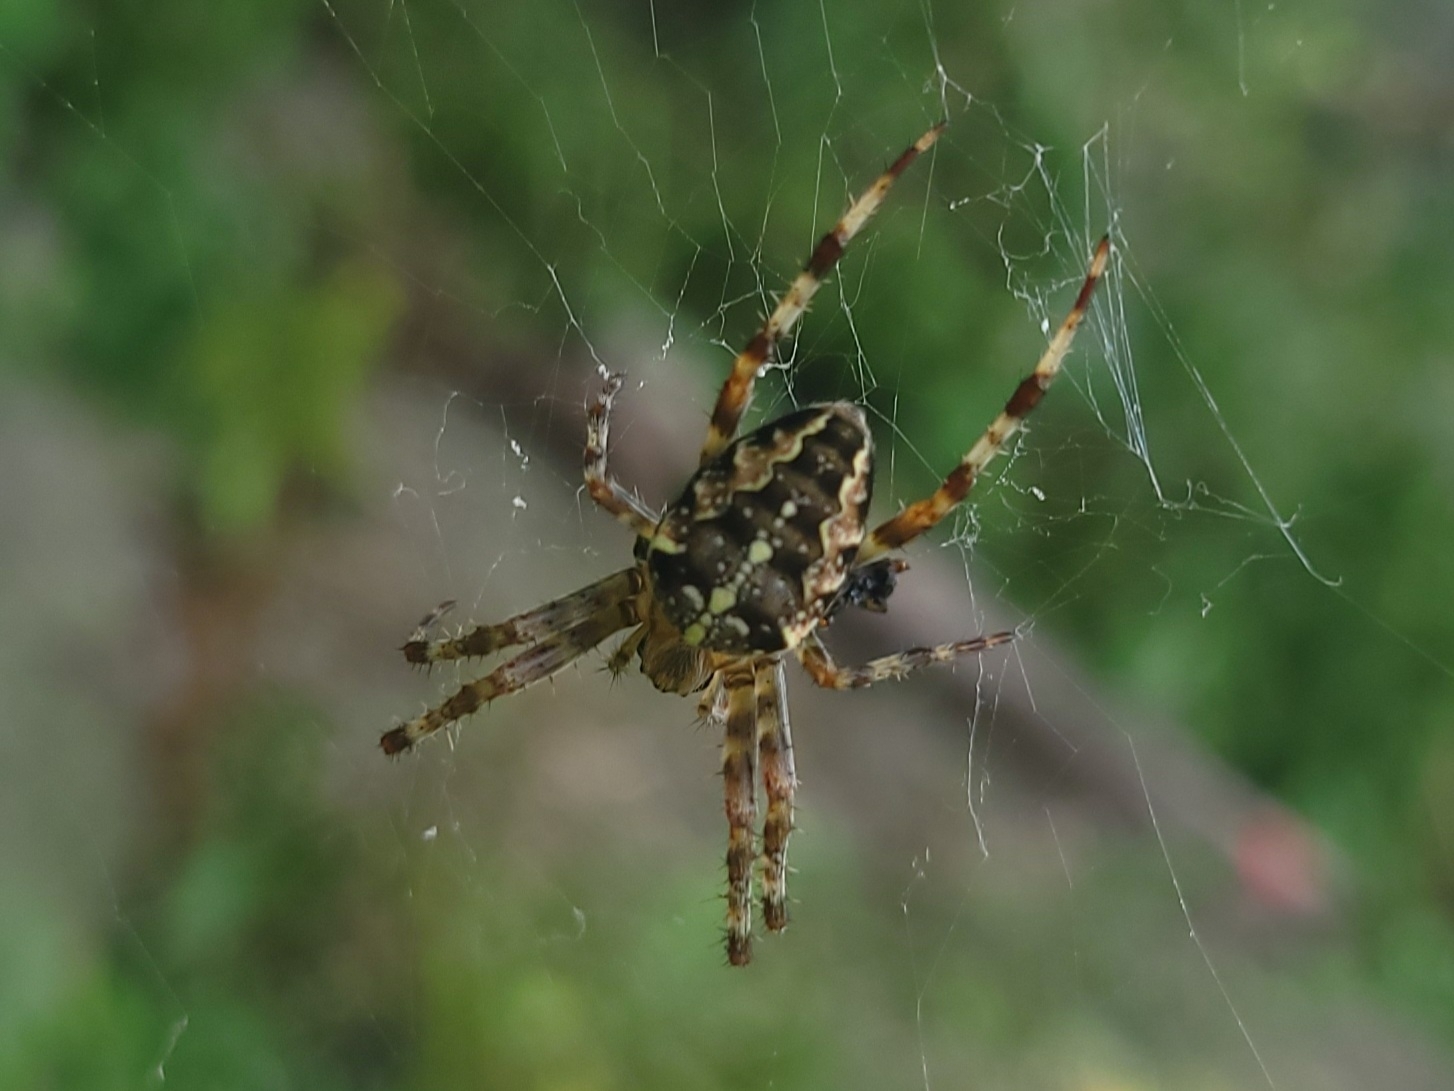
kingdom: Animalia
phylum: Arthropoda
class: Arachnida
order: Araneae
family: Araneidae
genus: Araneus
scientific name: Araneus diadematus
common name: Cross orbweaver
